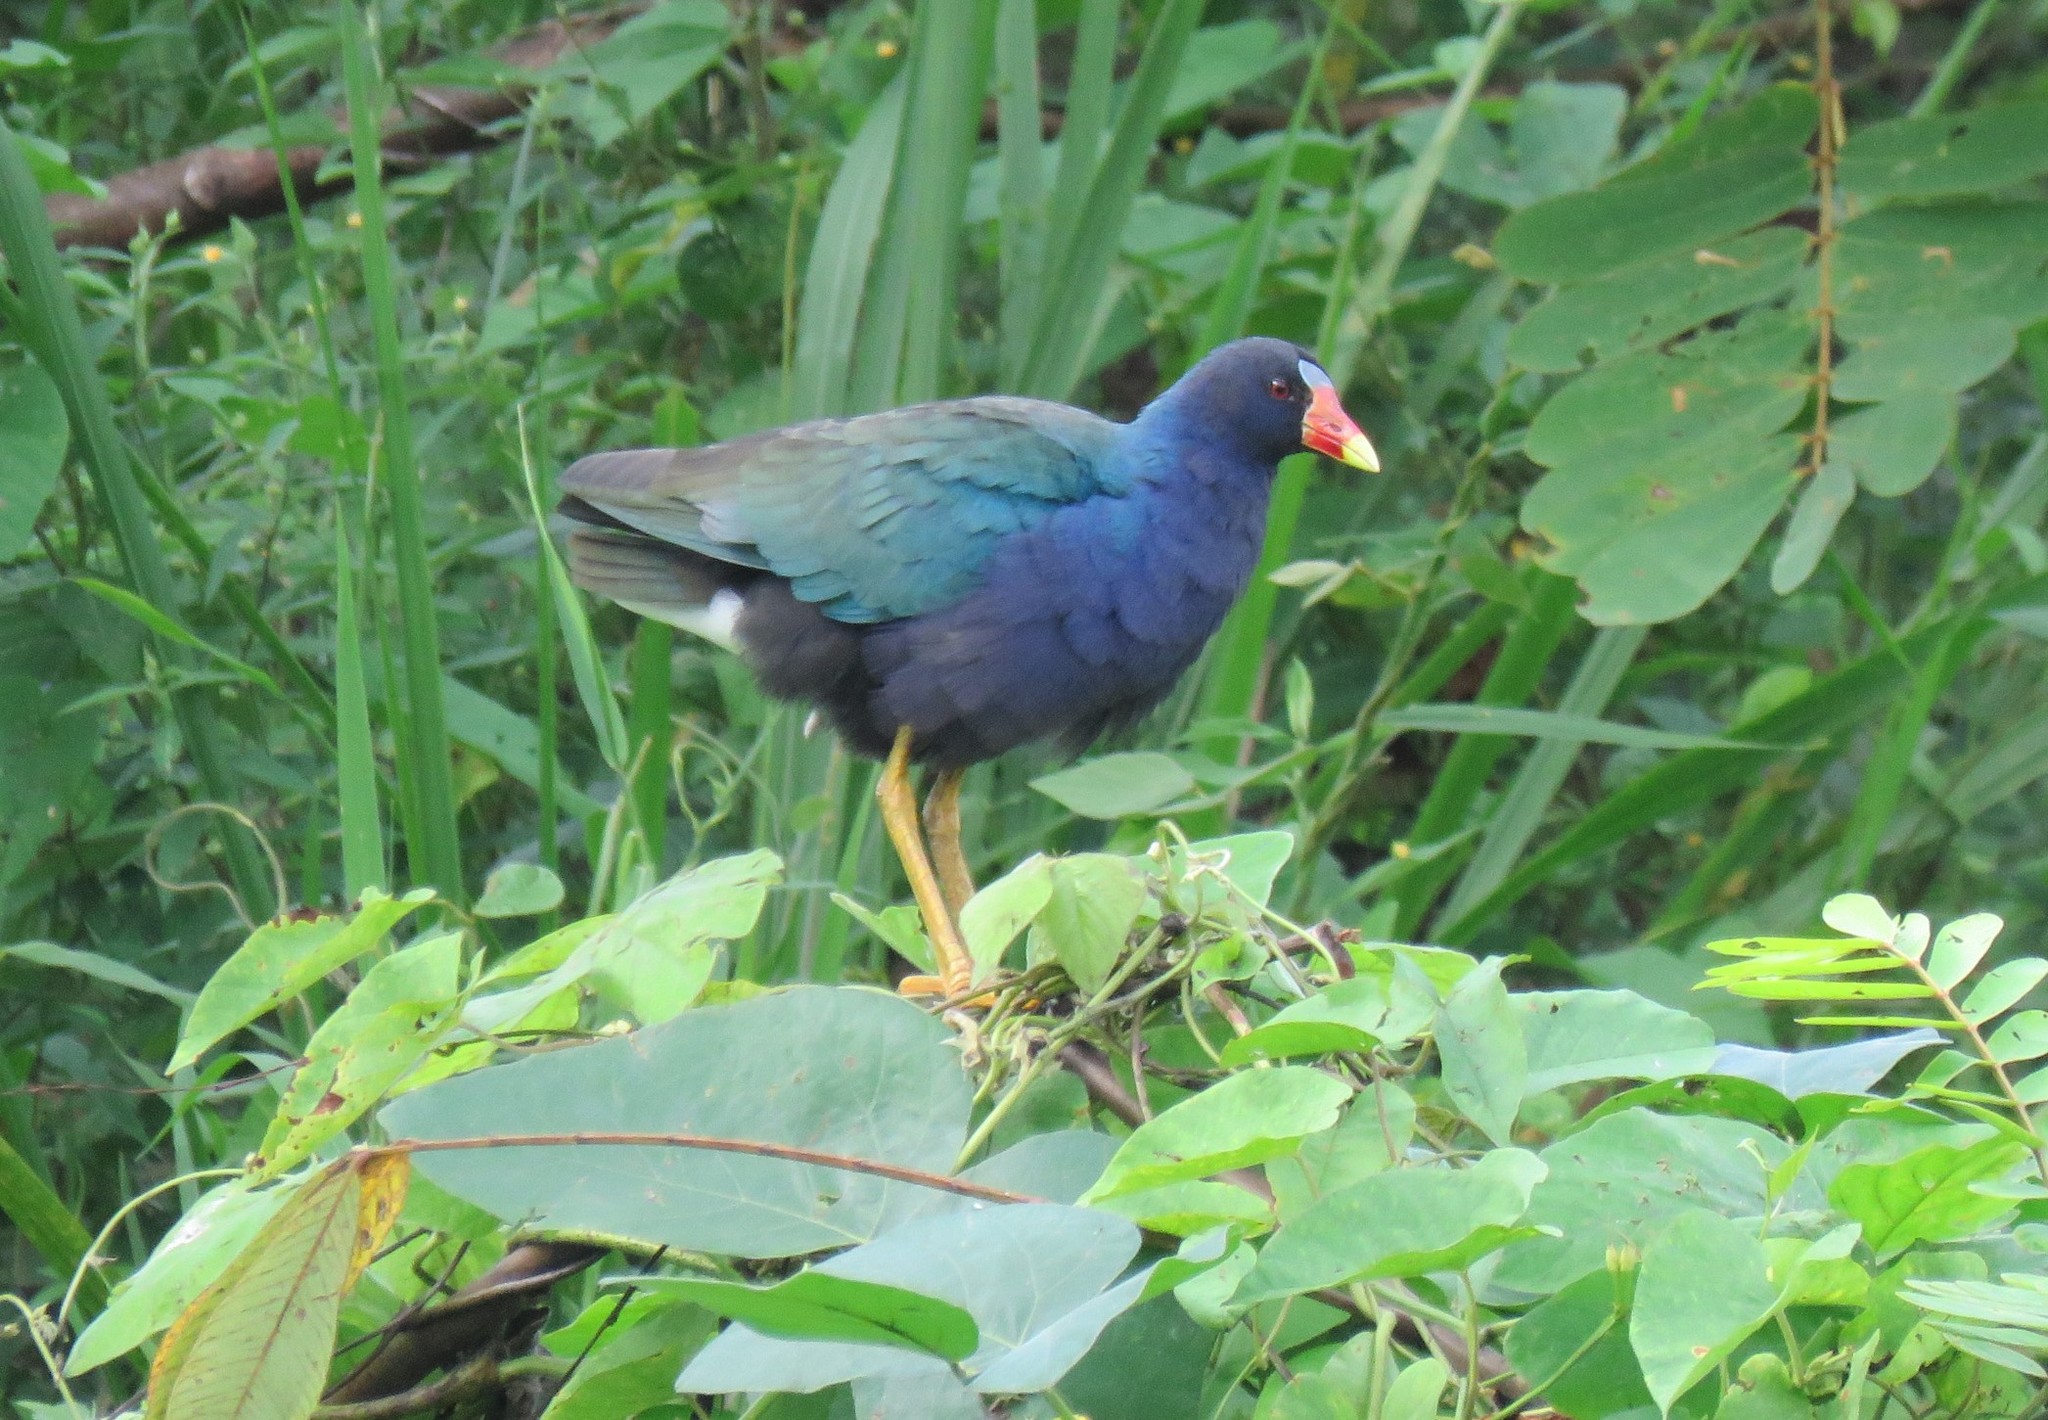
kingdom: Animalia
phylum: Chordata
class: Aves
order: Gruiformes
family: Rallidae
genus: Porphyrio
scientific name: Porphyrio martinica
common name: Purple gallinule
